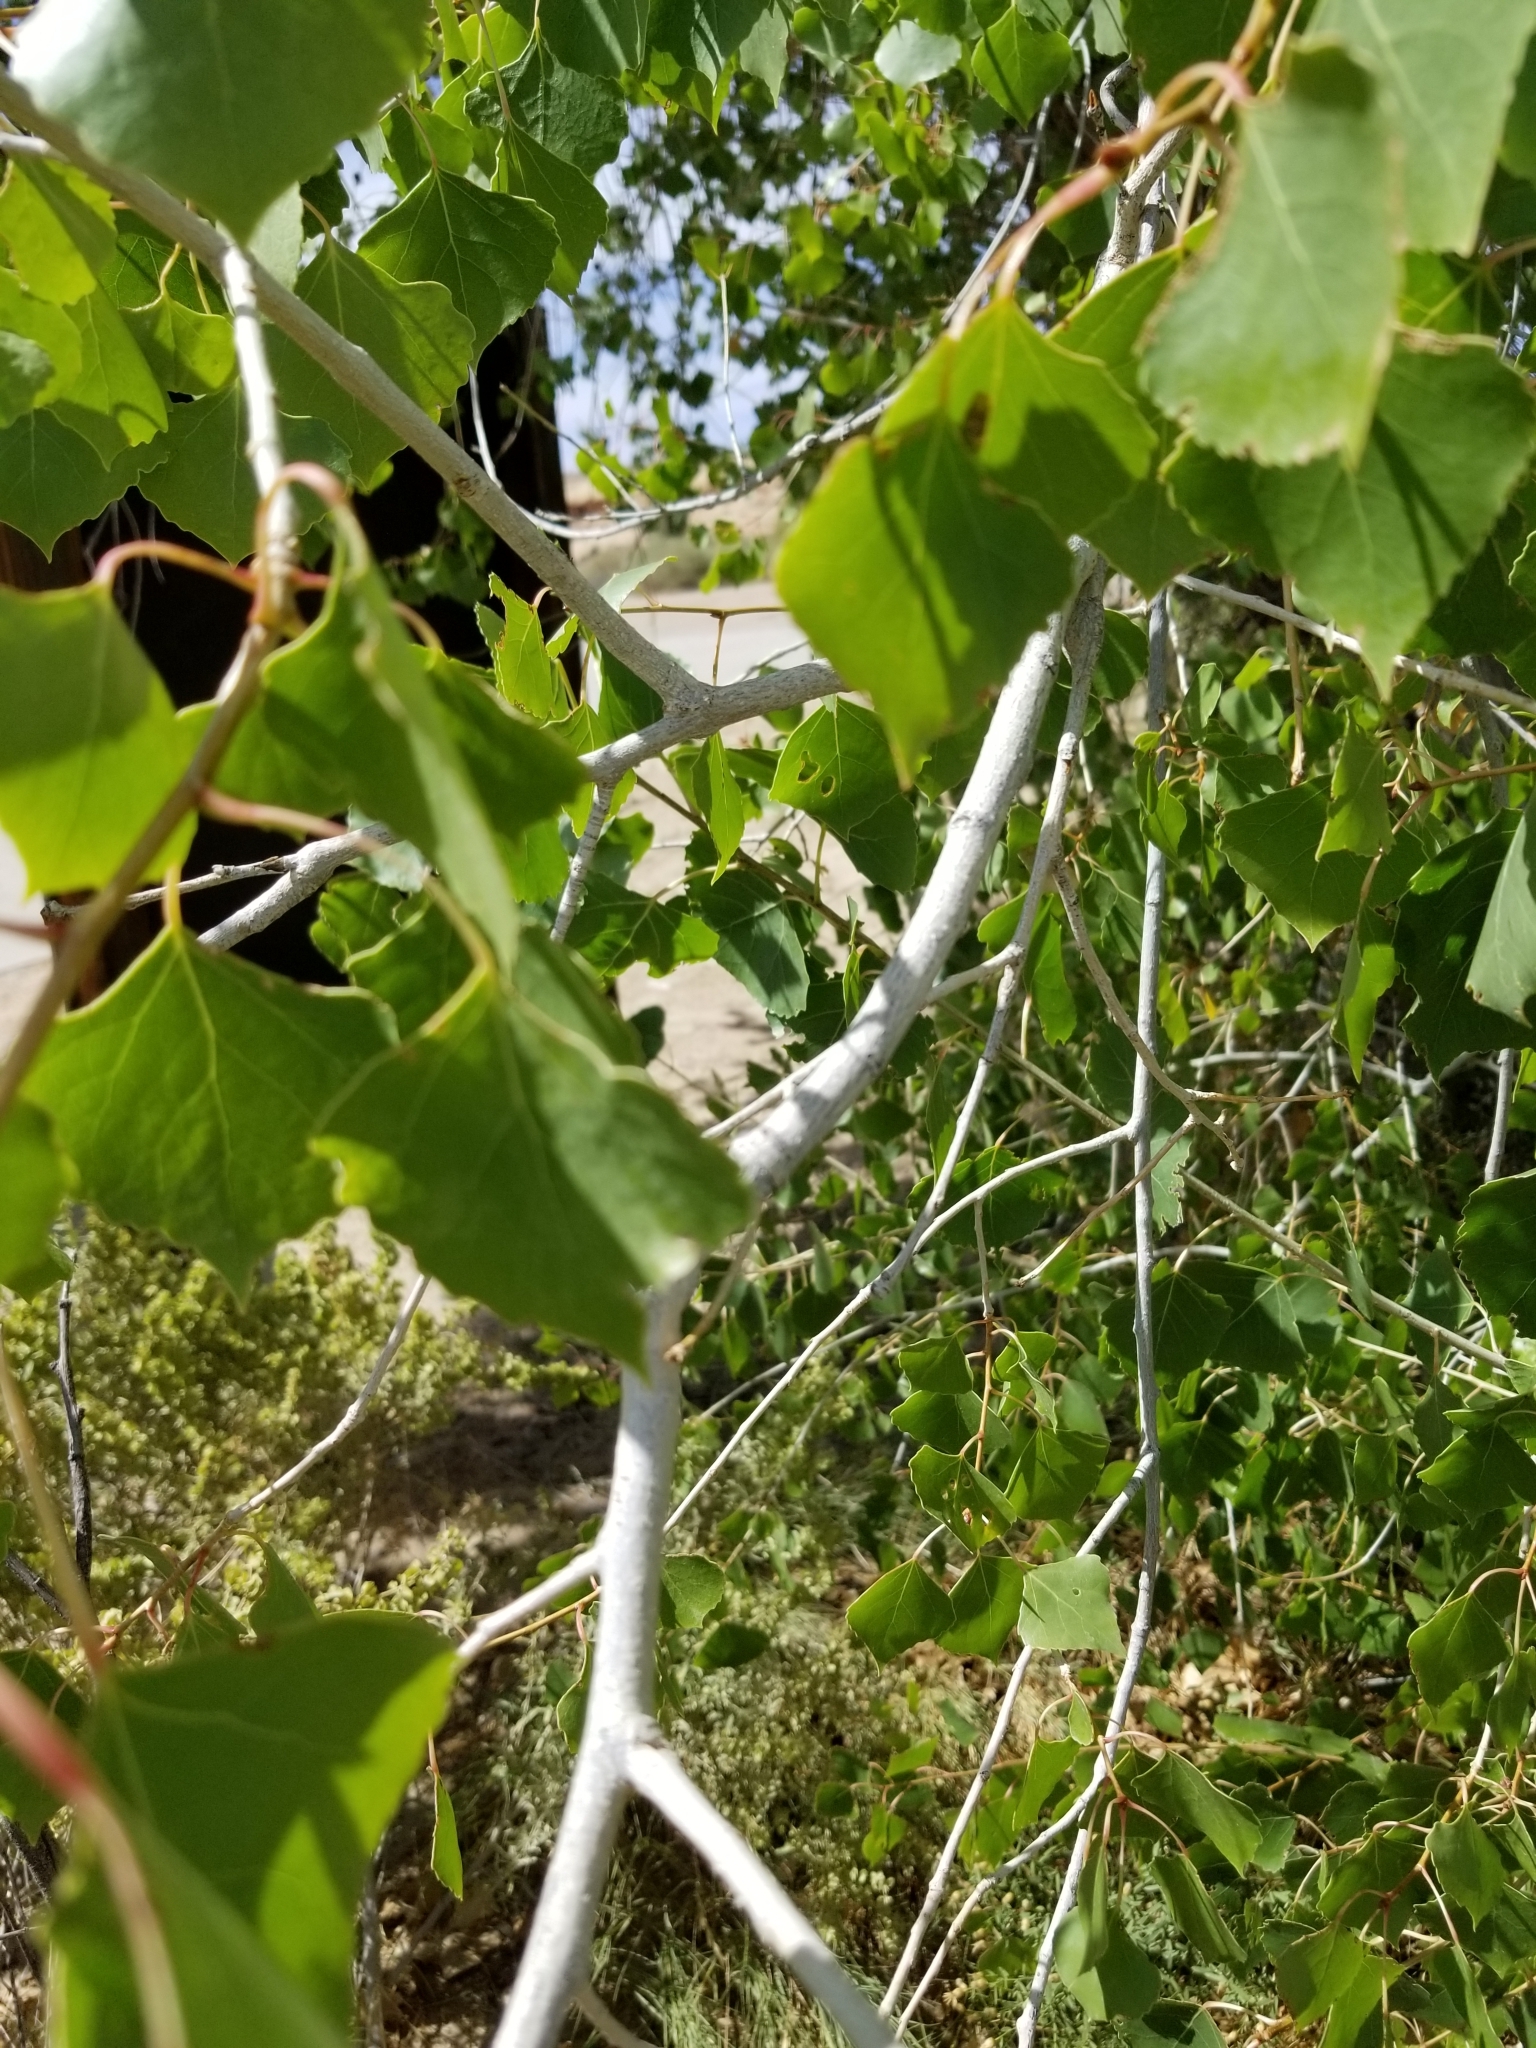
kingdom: Plantae
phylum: Tracheophyta
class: Magnoliopsida
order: Malpighiales
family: Salicaceae
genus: Populus
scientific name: Populus fremontii
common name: Fremont's cottonwood
